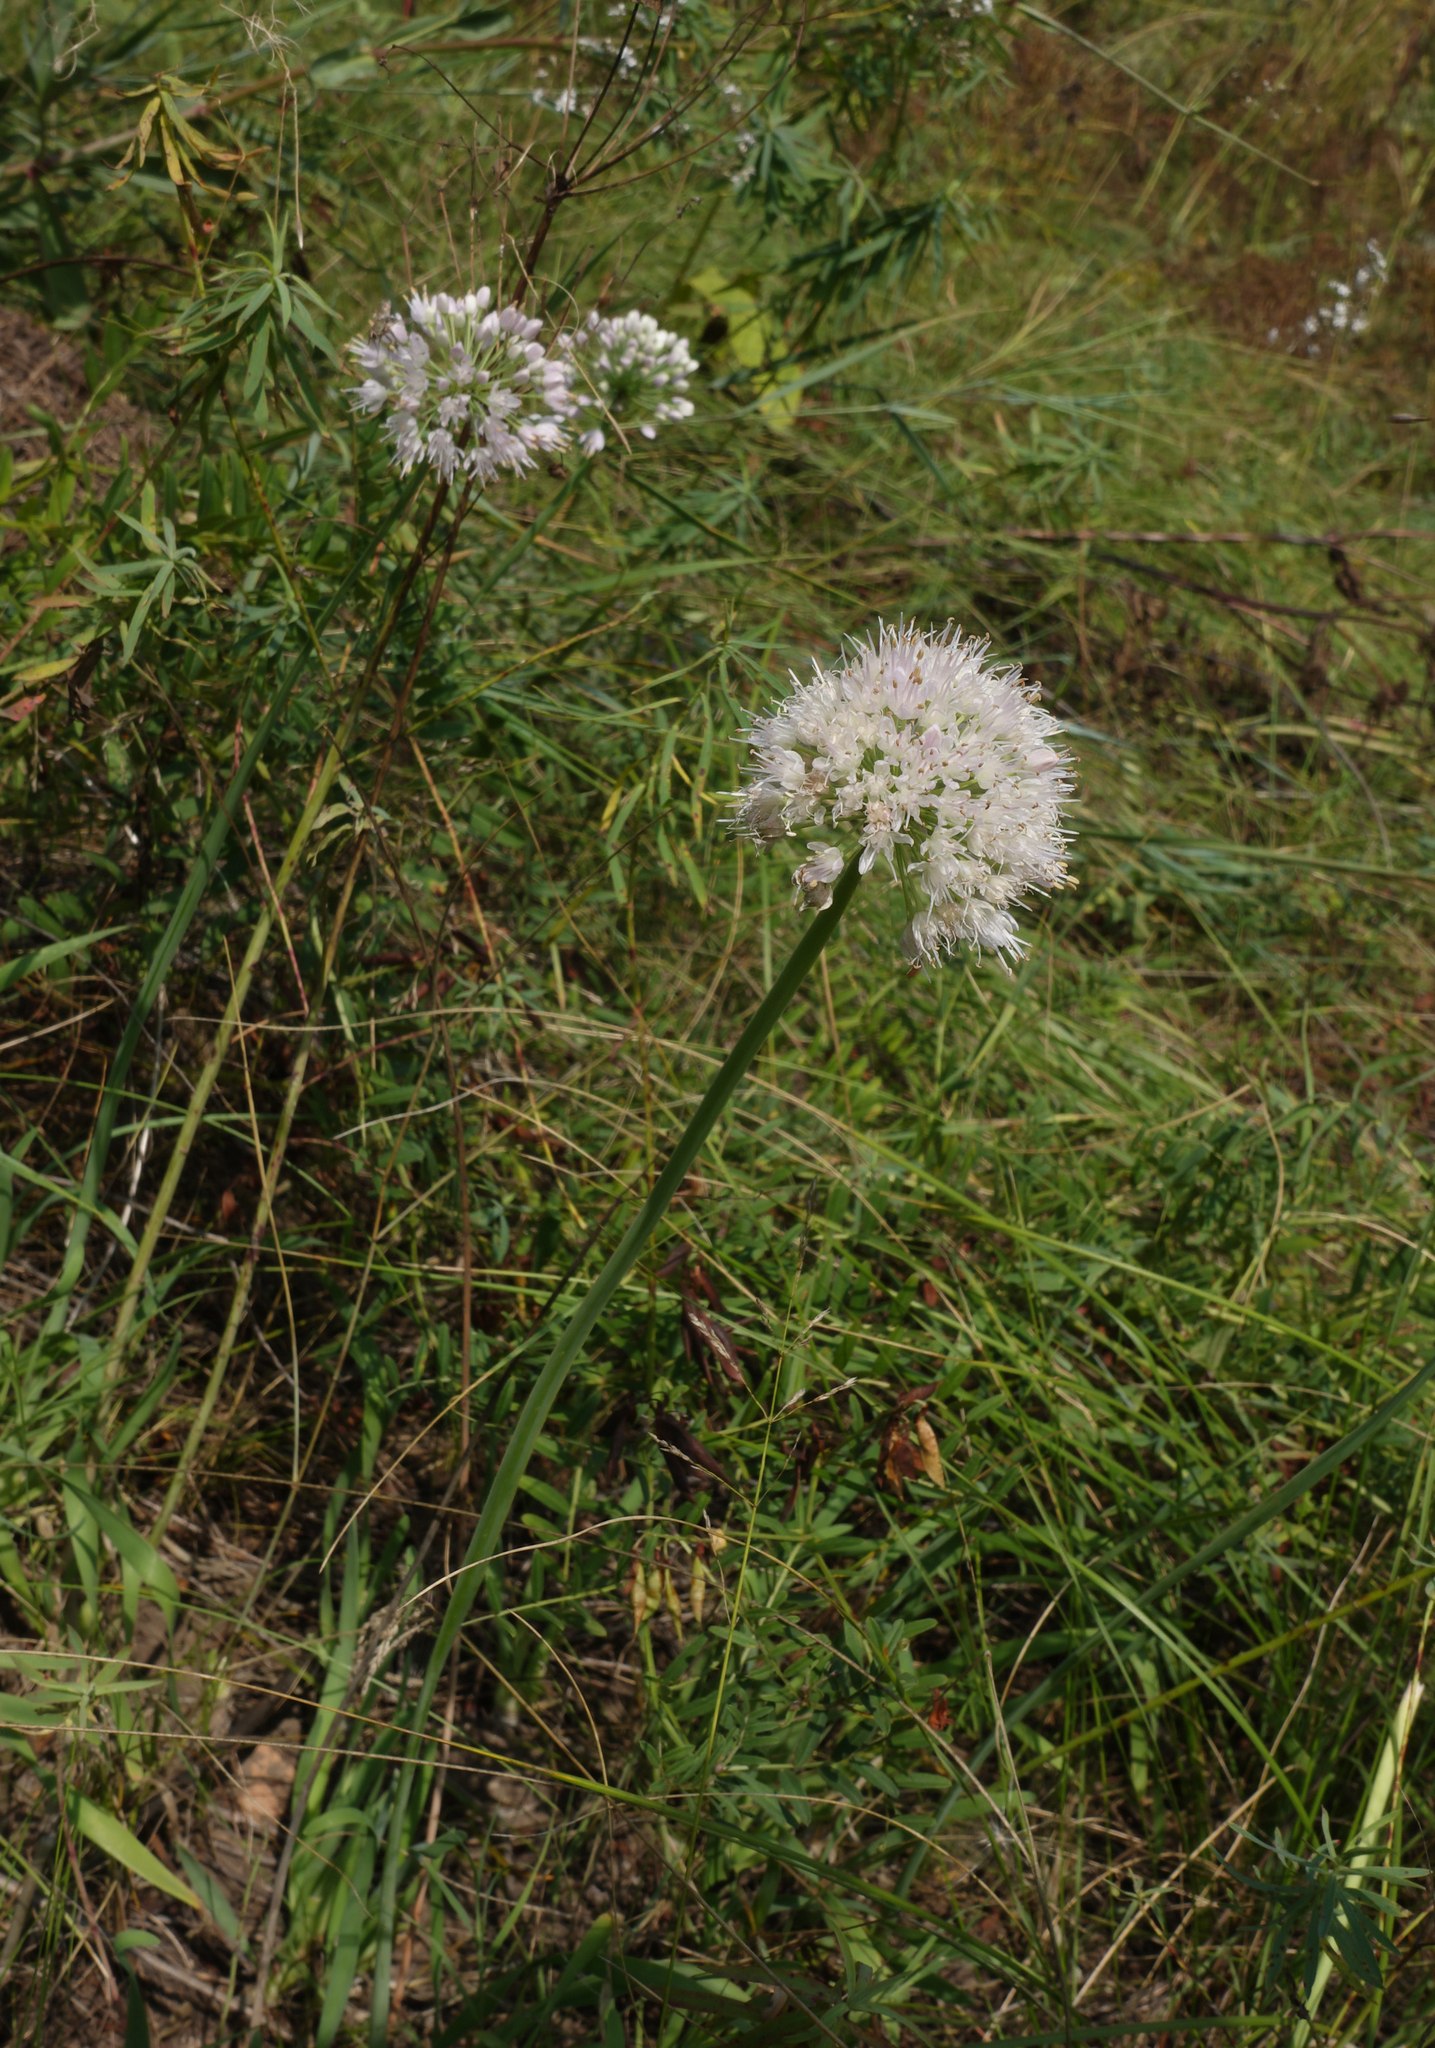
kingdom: Plantae
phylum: Tracheophyta
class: Liliopsida
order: Asparagales
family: Amaryllidaceae
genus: Allium
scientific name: Allium nutans
